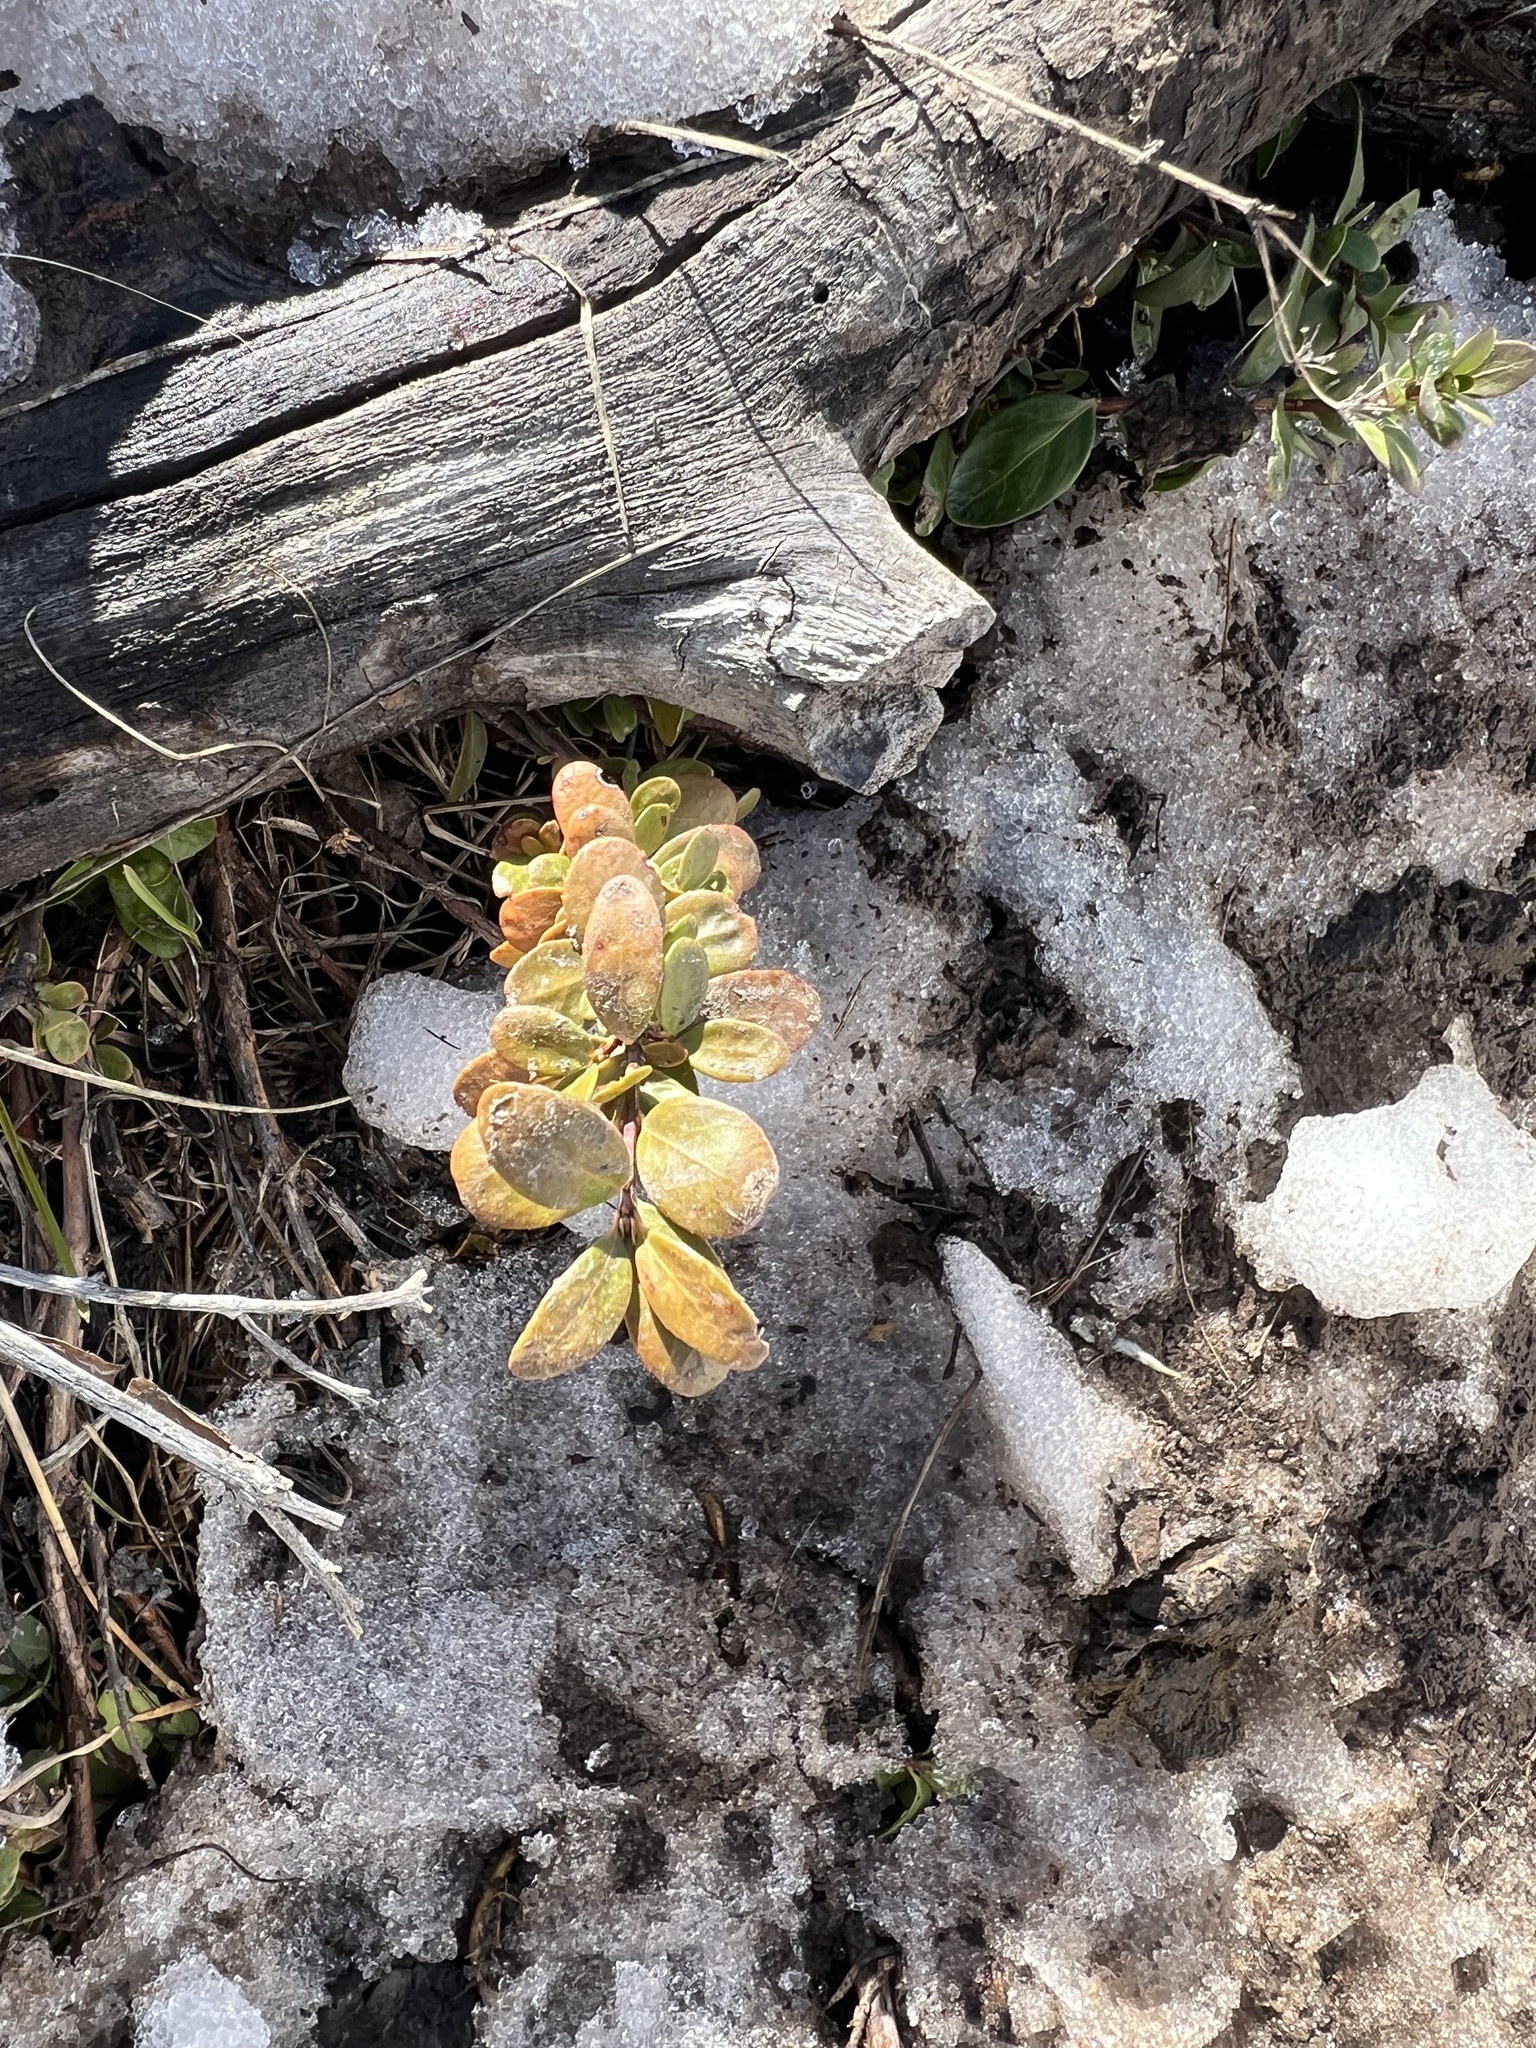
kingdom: Plantae
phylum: Tracheophyta
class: Magnoliopsida
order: Celastrales
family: Celastraceae
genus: Paxistima
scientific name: Paxistima myrsinites
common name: Mountain-lover
